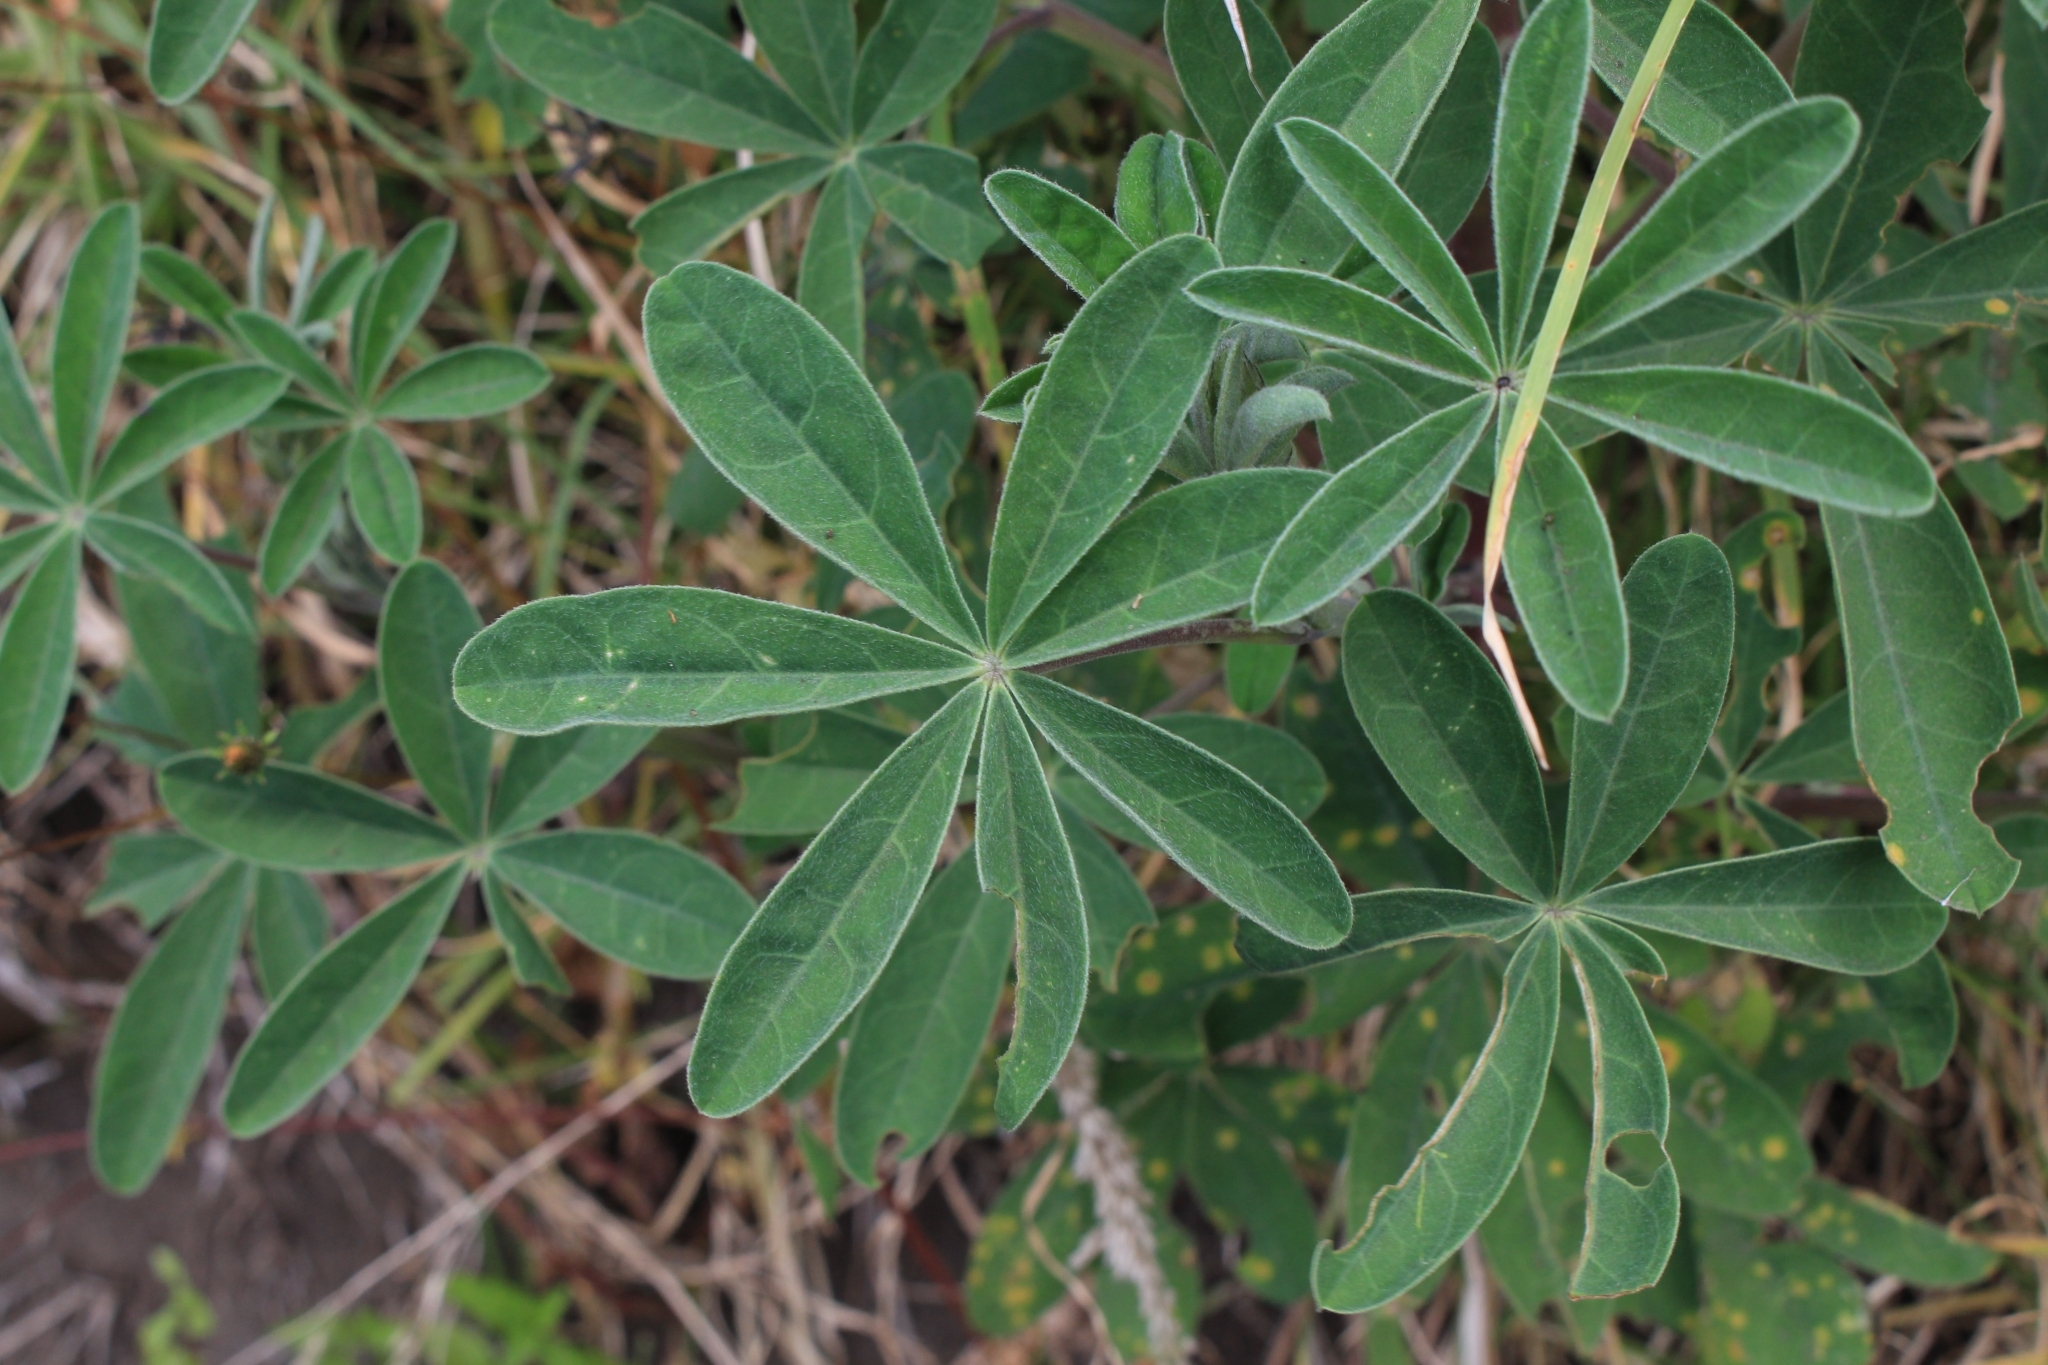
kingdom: Plantae
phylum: Tracheophyta
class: Magnoliopsida
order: Fabales
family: Fabaceae
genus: Lupinus
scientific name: Lupinus clarkei
